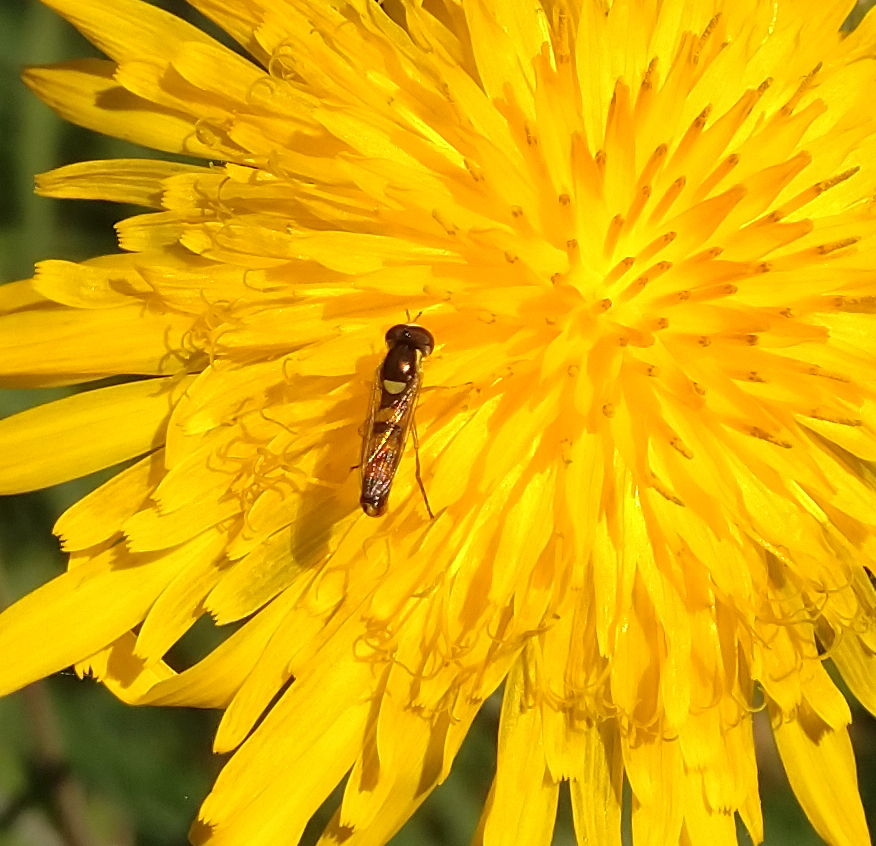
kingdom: Animalia
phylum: Arthropoda
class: Insecta
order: Diptera
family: Syrphidae
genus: Sphaerophoria
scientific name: Sphaerophoria contigua
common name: Tufted globetail
